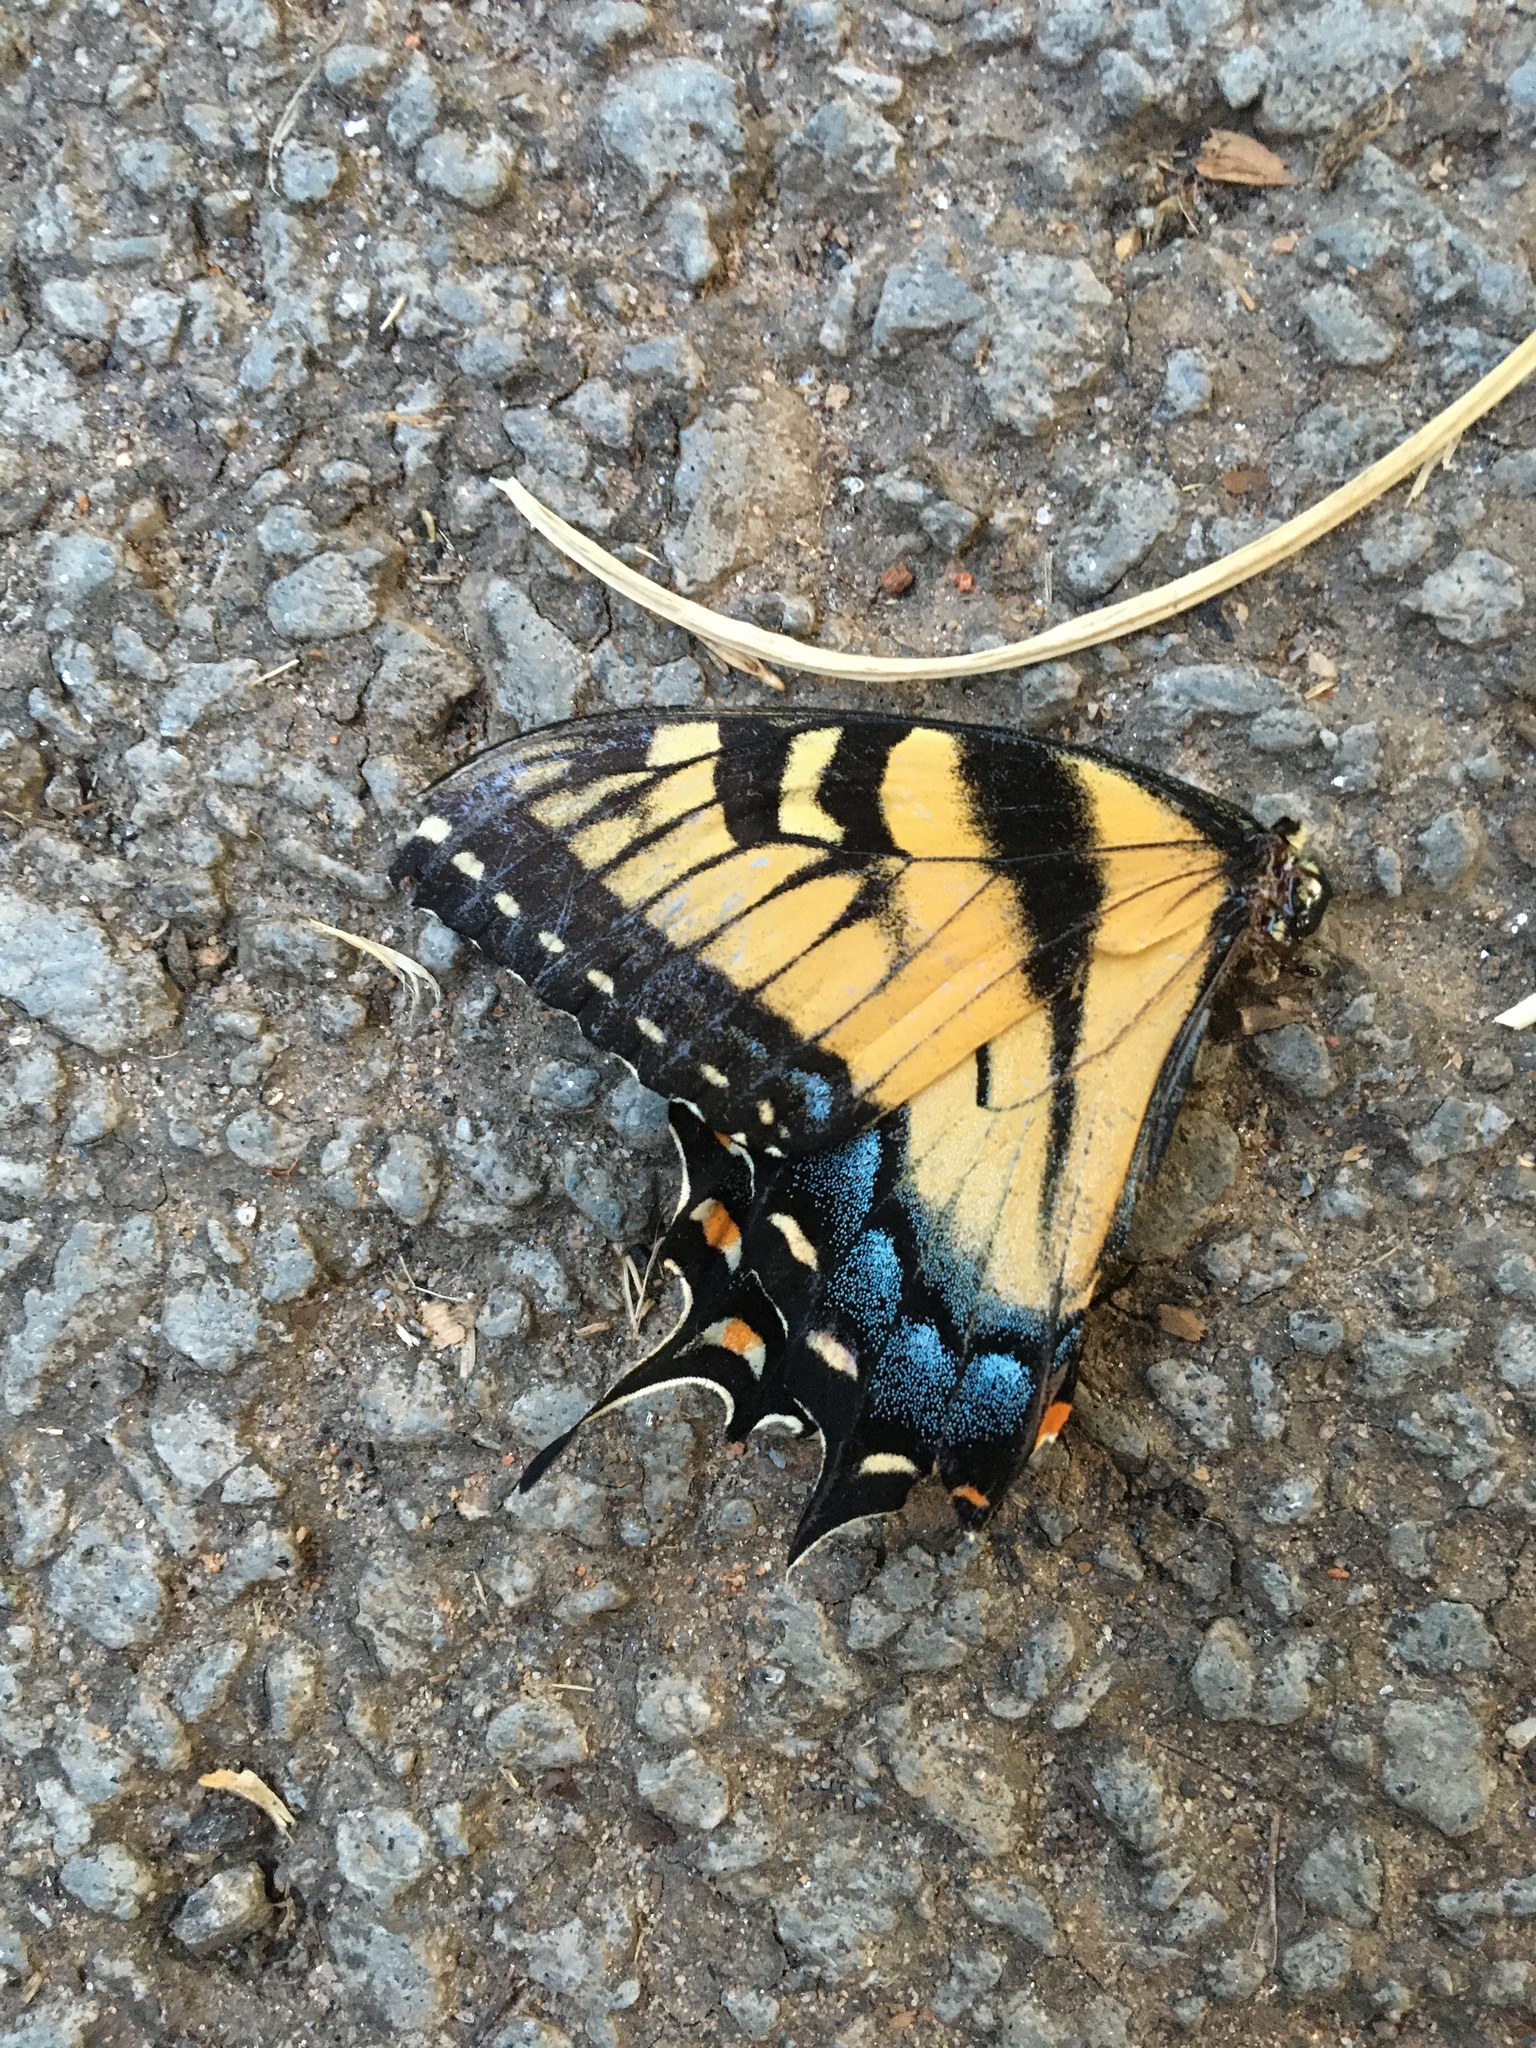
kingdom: Animalia
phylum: Arthropoda
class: Insecta
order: Lepidoptera
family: Papilionidae
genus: Papilio
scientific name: Papilio glaucus
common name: Tiger swallowtail
